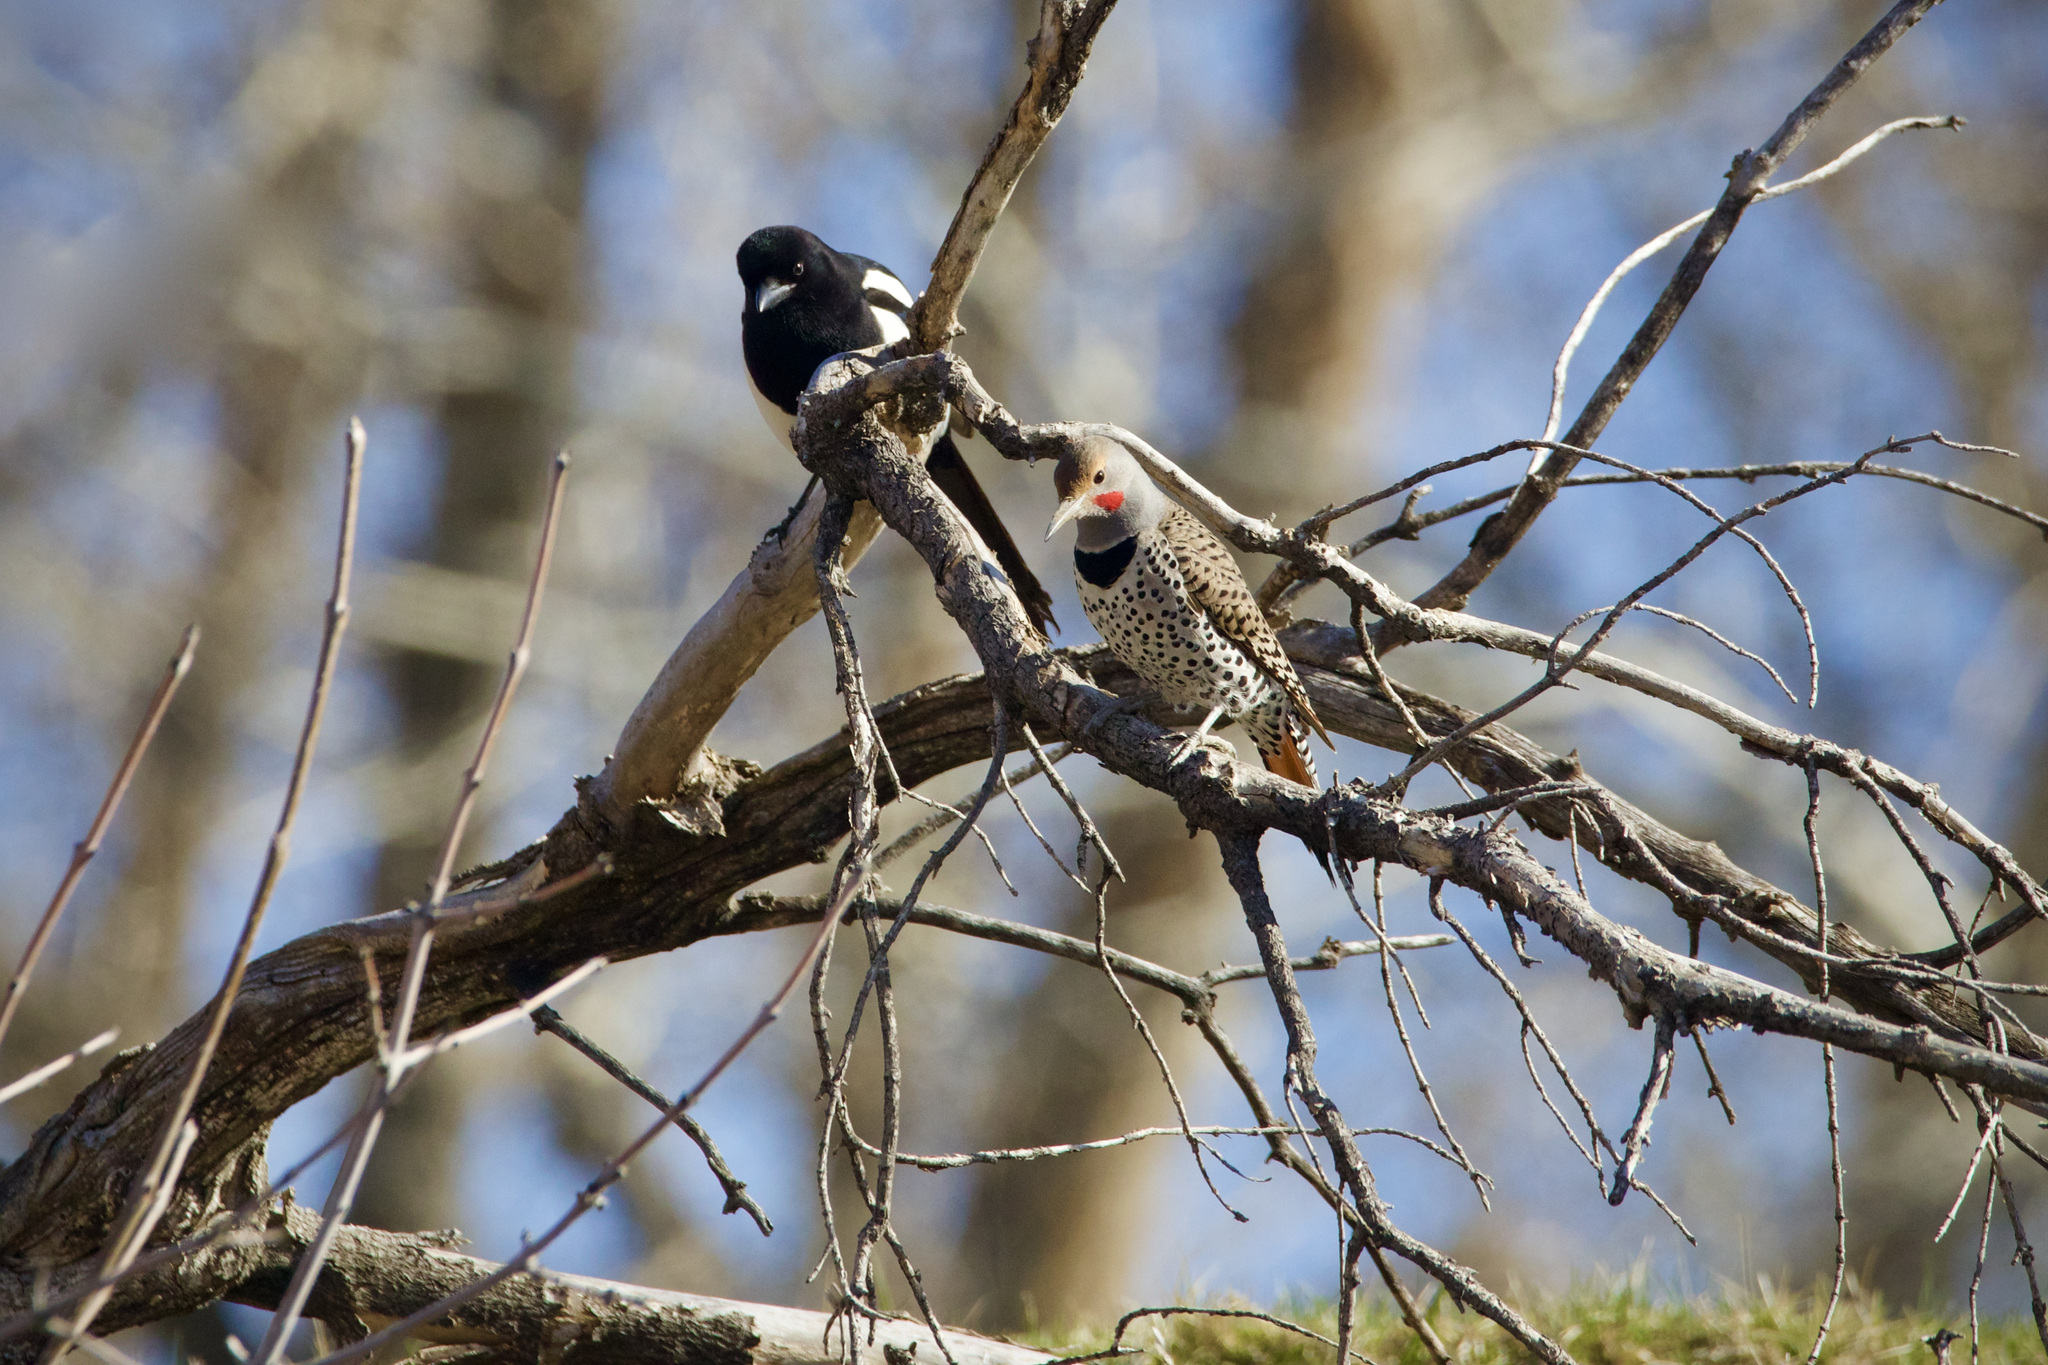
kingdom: Animalia
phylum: Chordata
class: Aves
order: Piciformes
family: Picidae
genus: Colaptes
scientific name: Colaptes auratus
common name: Northern flicker
